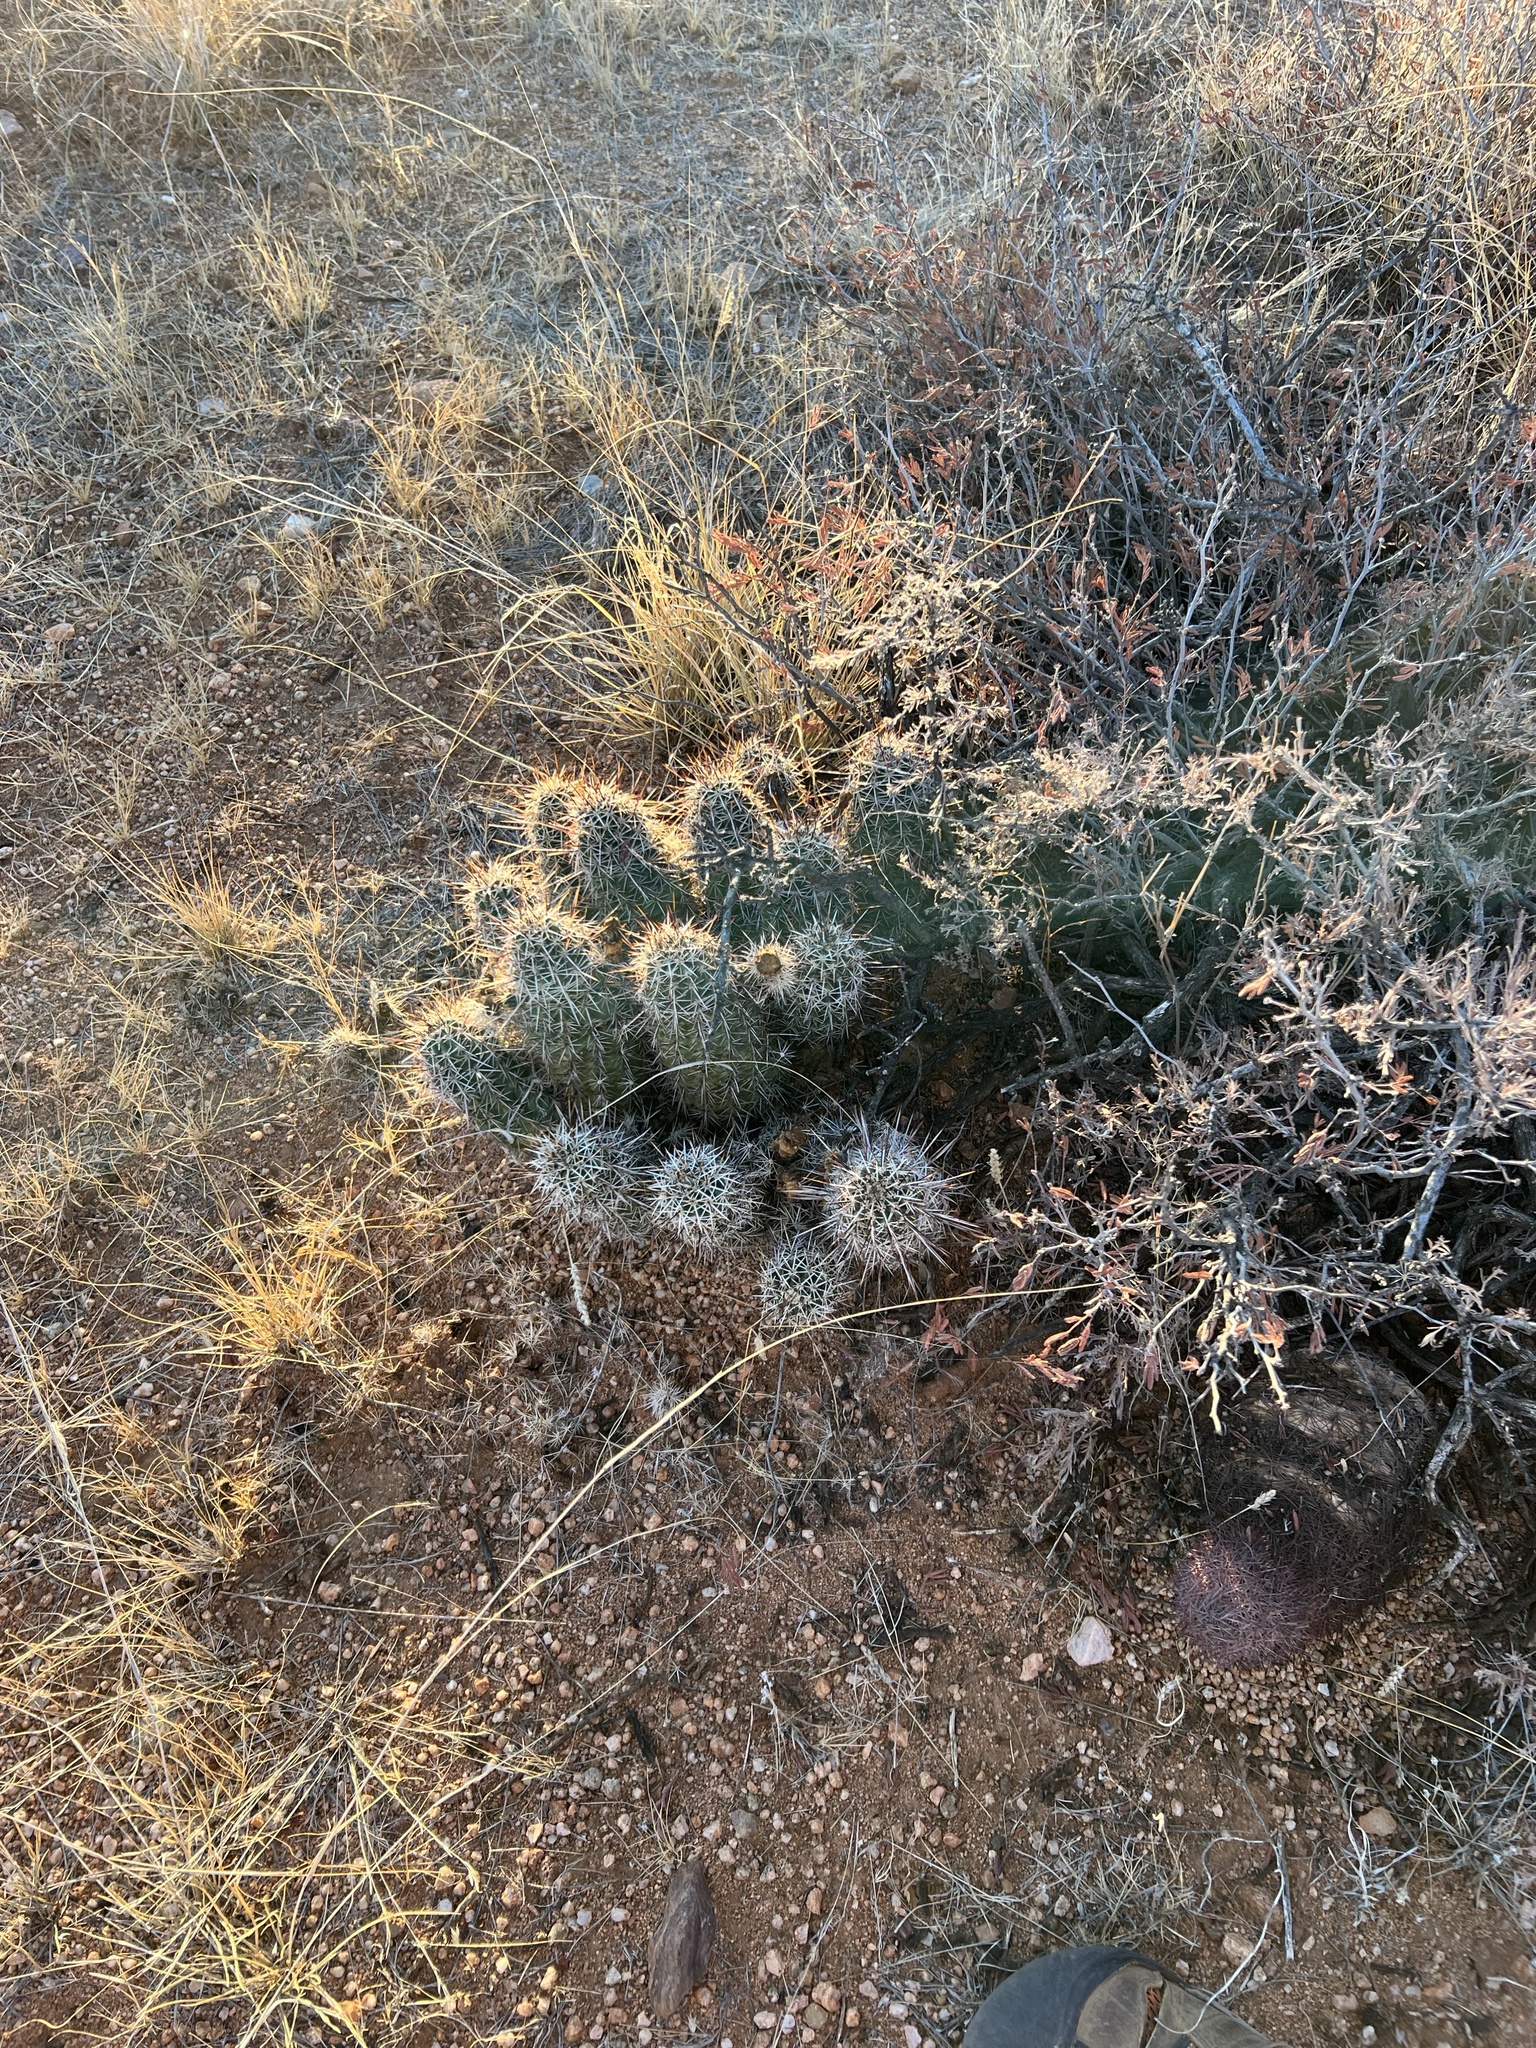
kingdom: Plantae
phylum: Tracheophyta
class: Magnoliopsida
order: Caryophyllales
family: Cactaceae
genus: Echinocereus
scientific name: Echinocereus fasciculatus
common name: Bundle hedgehog
